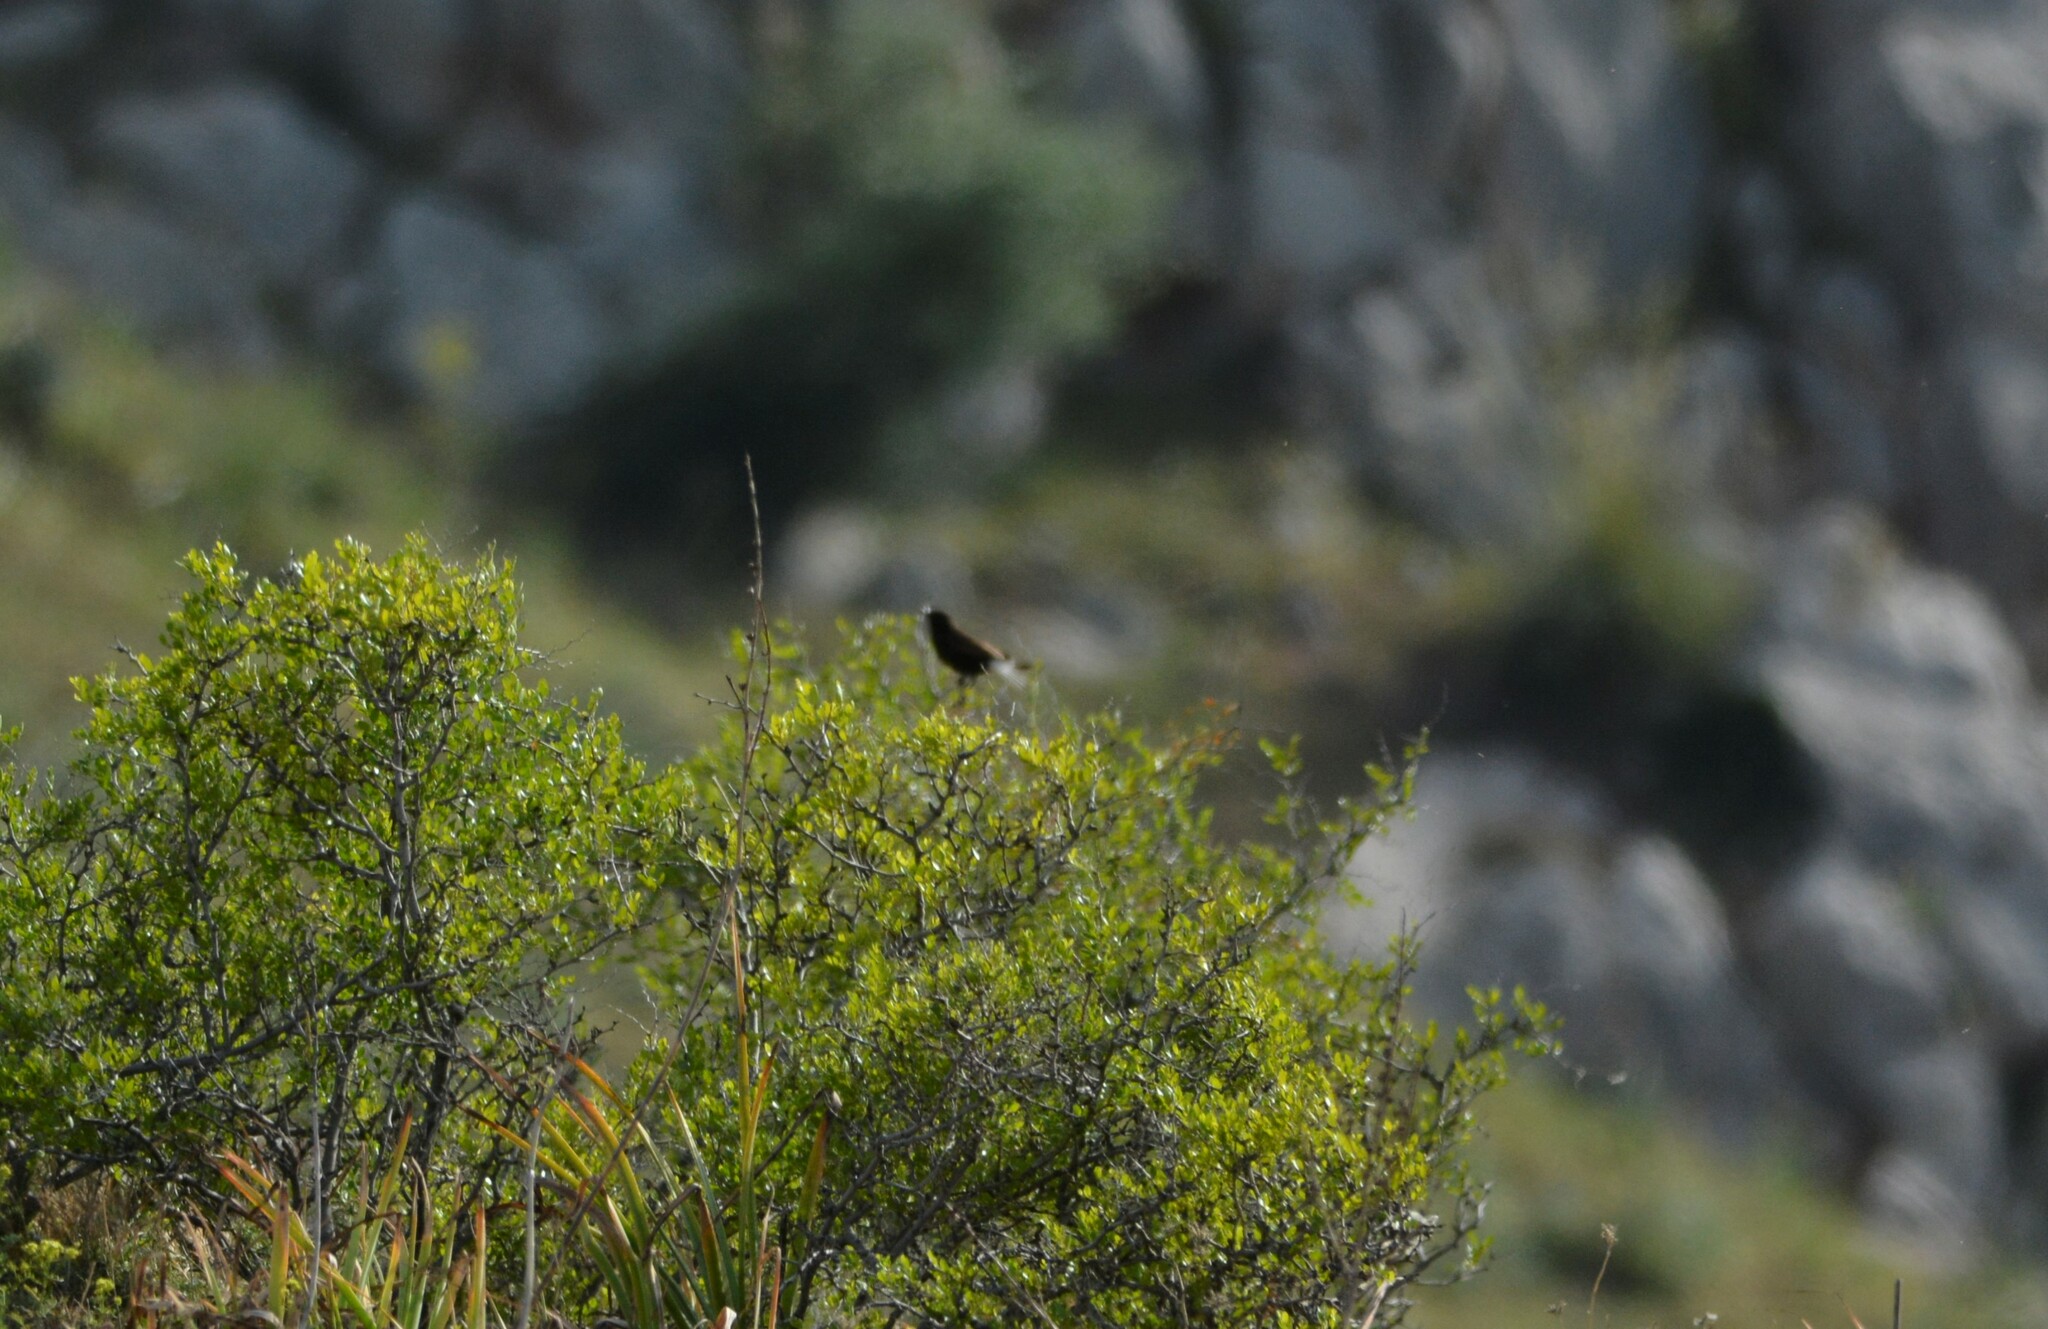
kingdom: Animalia
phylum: Chordata
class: Aves
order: Passeriformes
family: Muscicapidae
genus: Oenanthe
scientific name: Oenanthe leucura
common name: Black wheatear
